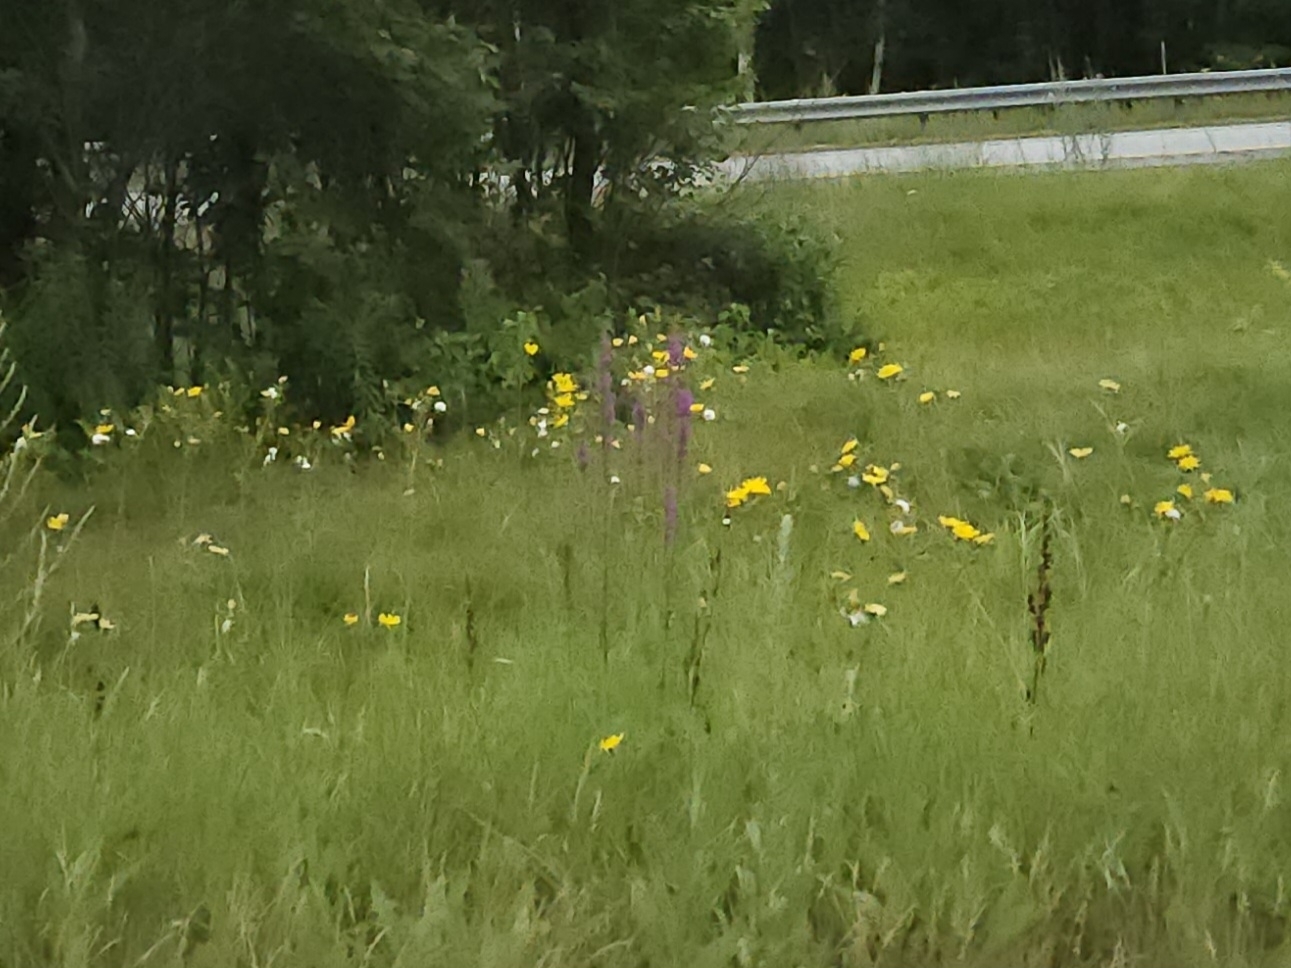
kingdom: Plantae
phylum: Tracheophyta
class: Magnoliopsida
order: Myrtales
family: Lythraceae
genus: Lythrum
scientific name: Lythrum salicaria
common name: Purple loosestrife
